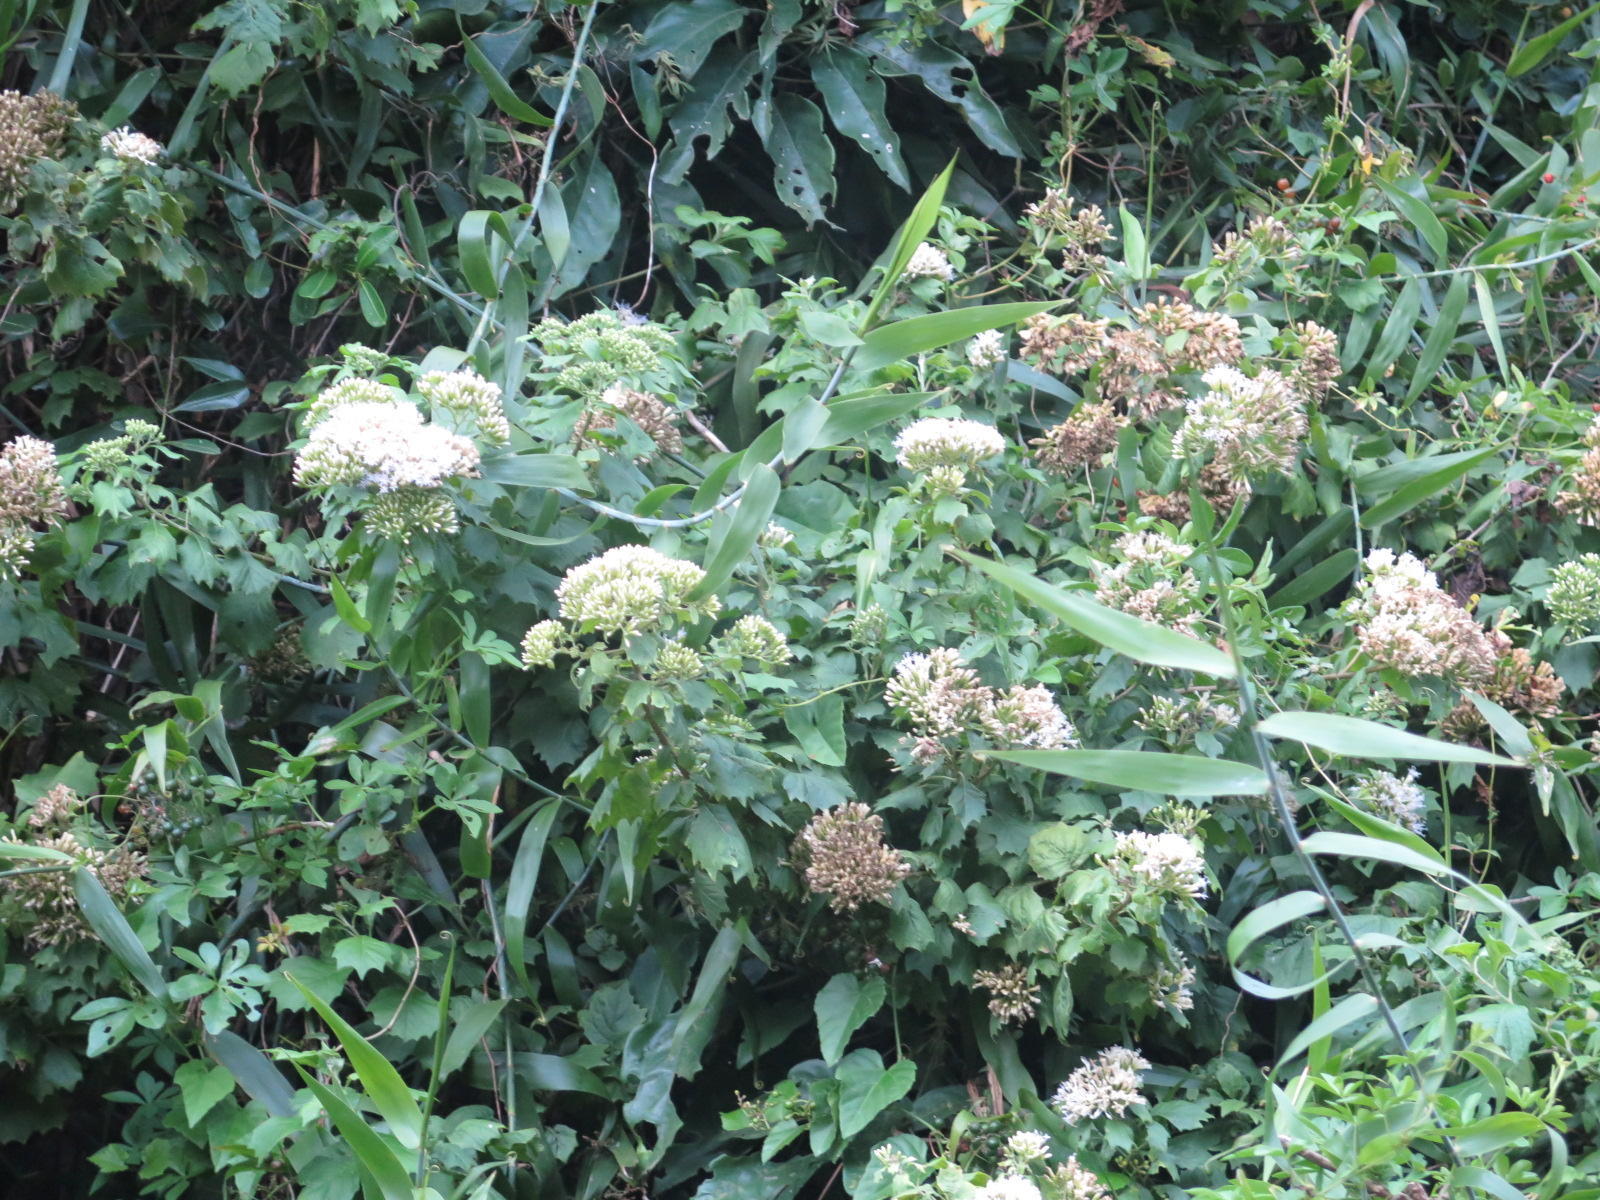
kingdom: Plantae
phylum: Tracheophyta
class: Magnoliopsida
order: Asterales
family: Asteraceae
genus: Gymnanthemum
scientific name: Gymnanthemum capense
